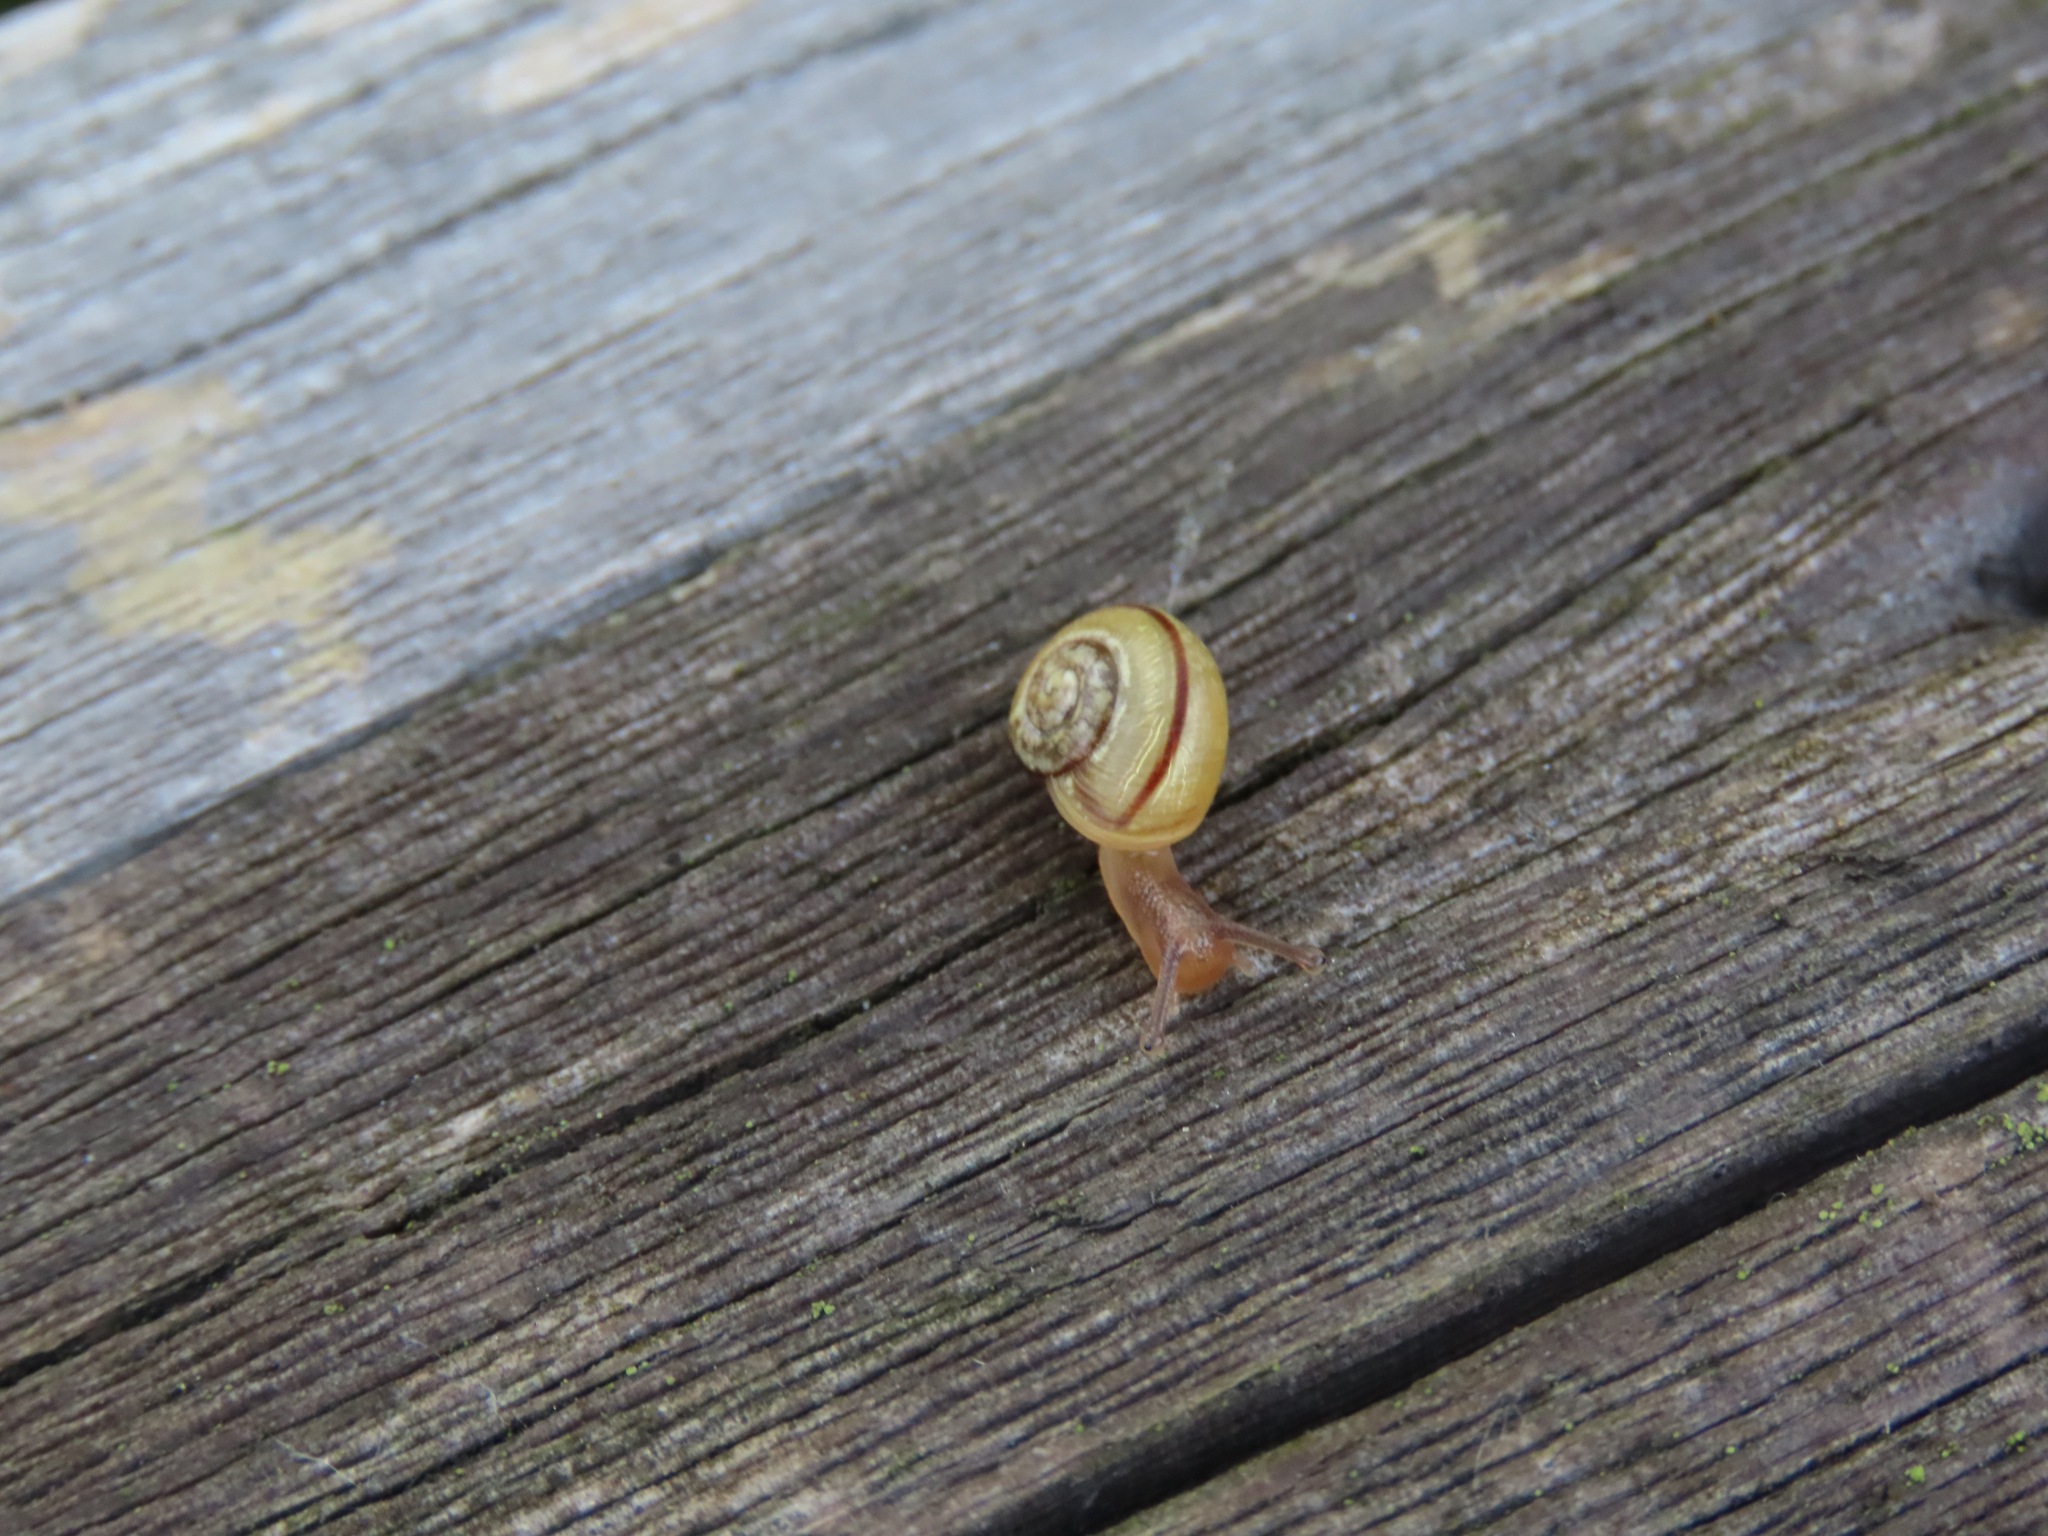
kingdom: Animalia
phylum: Mollusca
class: Gastropoda
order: Stylommatophora
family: Helicidae
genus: Cepaea
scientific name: Cepaea nemoralis
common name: Grovesnail
